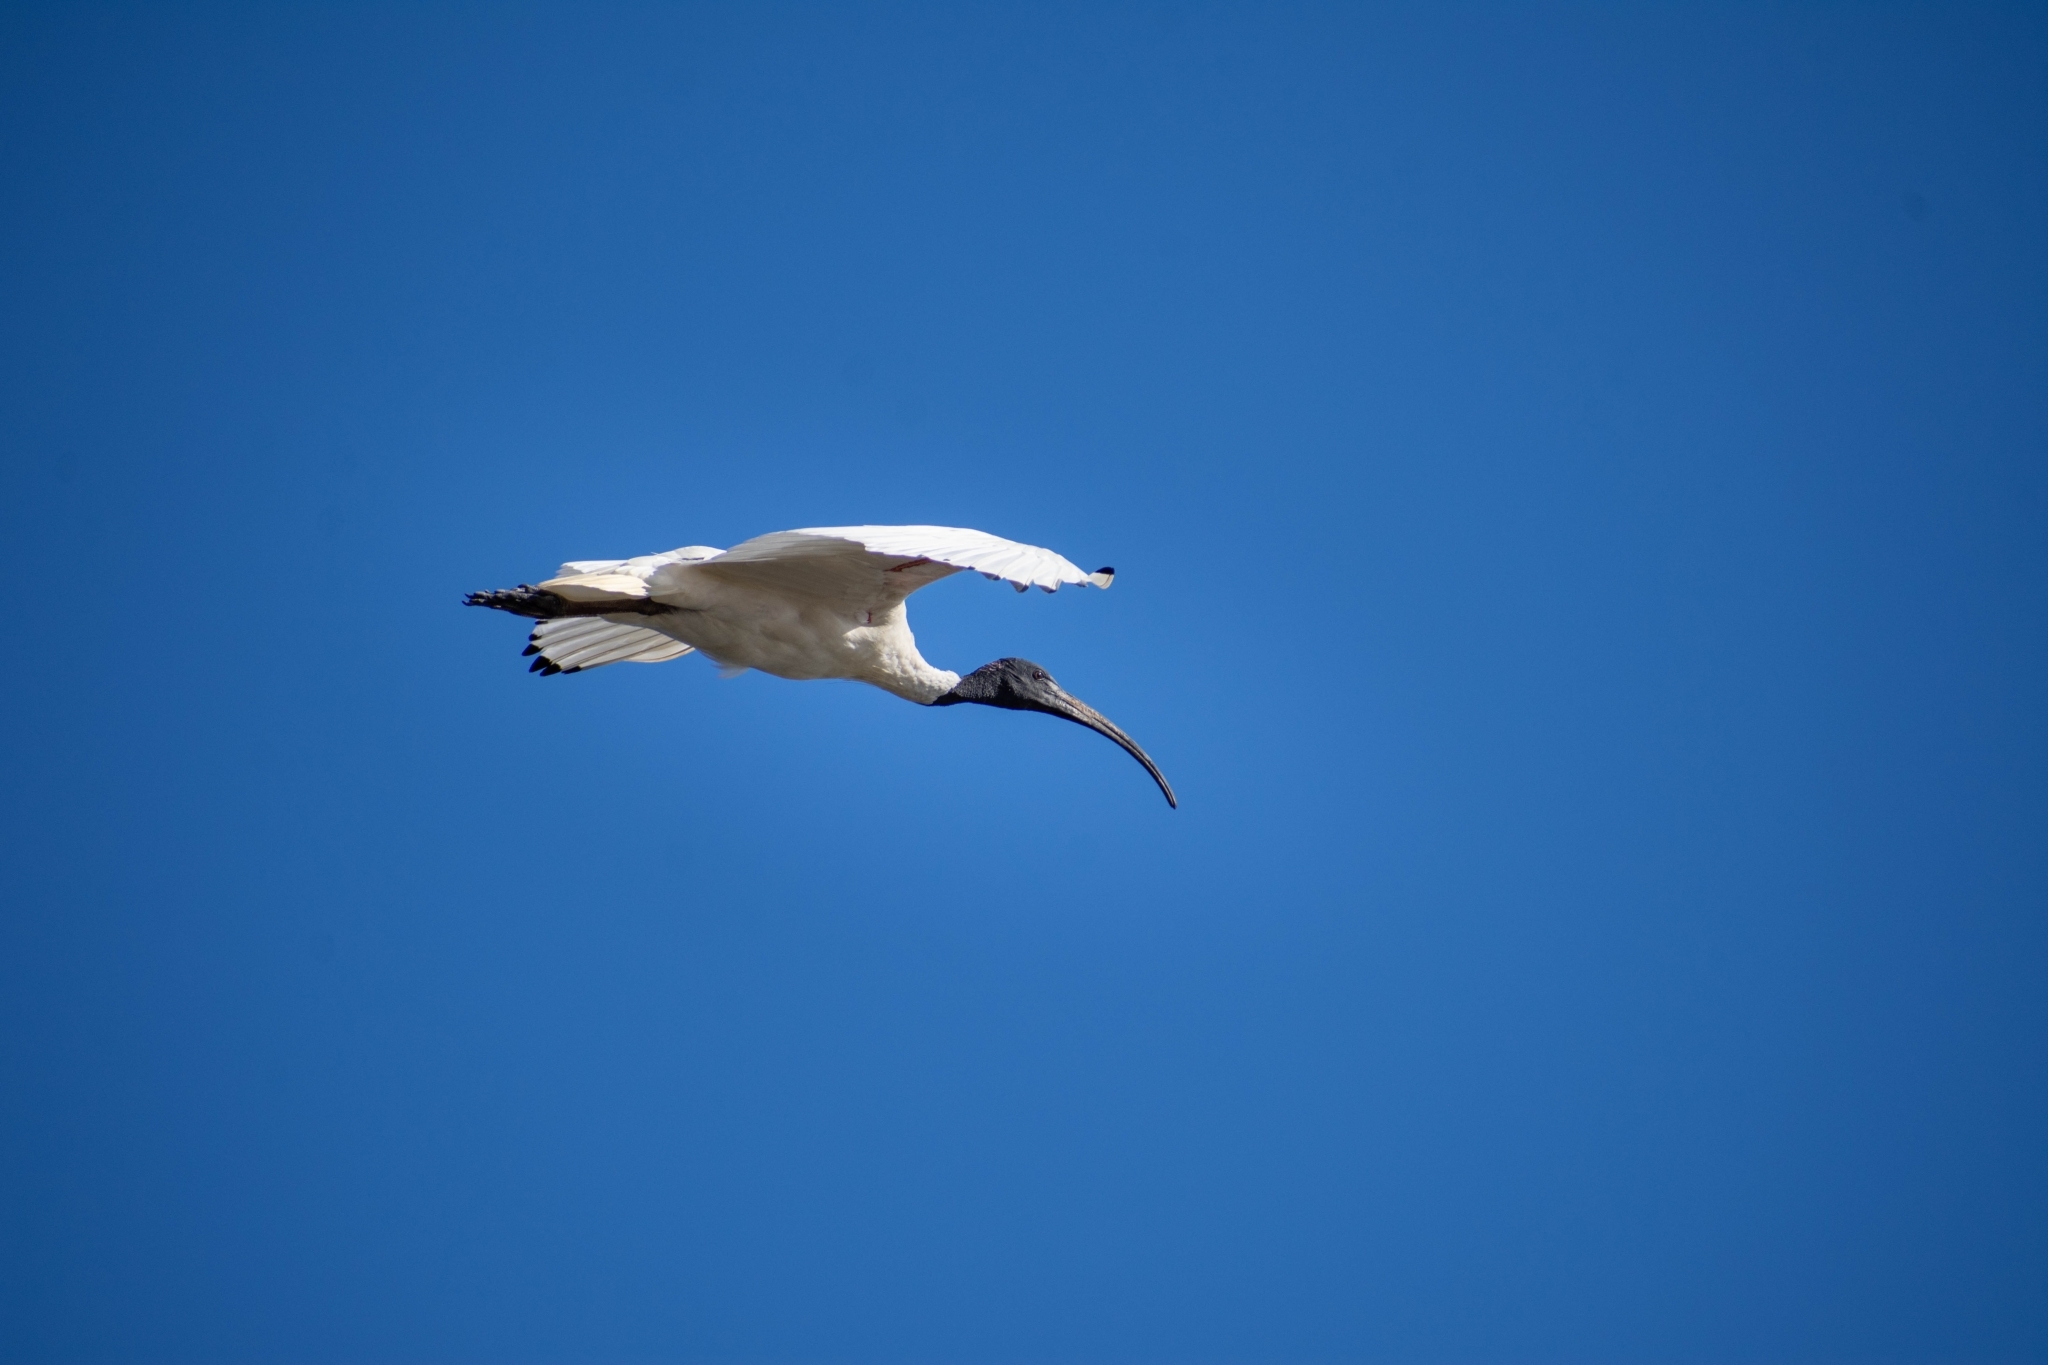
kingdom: Animalia
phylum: Chordata
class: Aves
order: Pelecaniformes
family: Threskiornithidae
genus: Threskiornis
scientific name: Threskiornis molucca
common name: Australian white ibis
